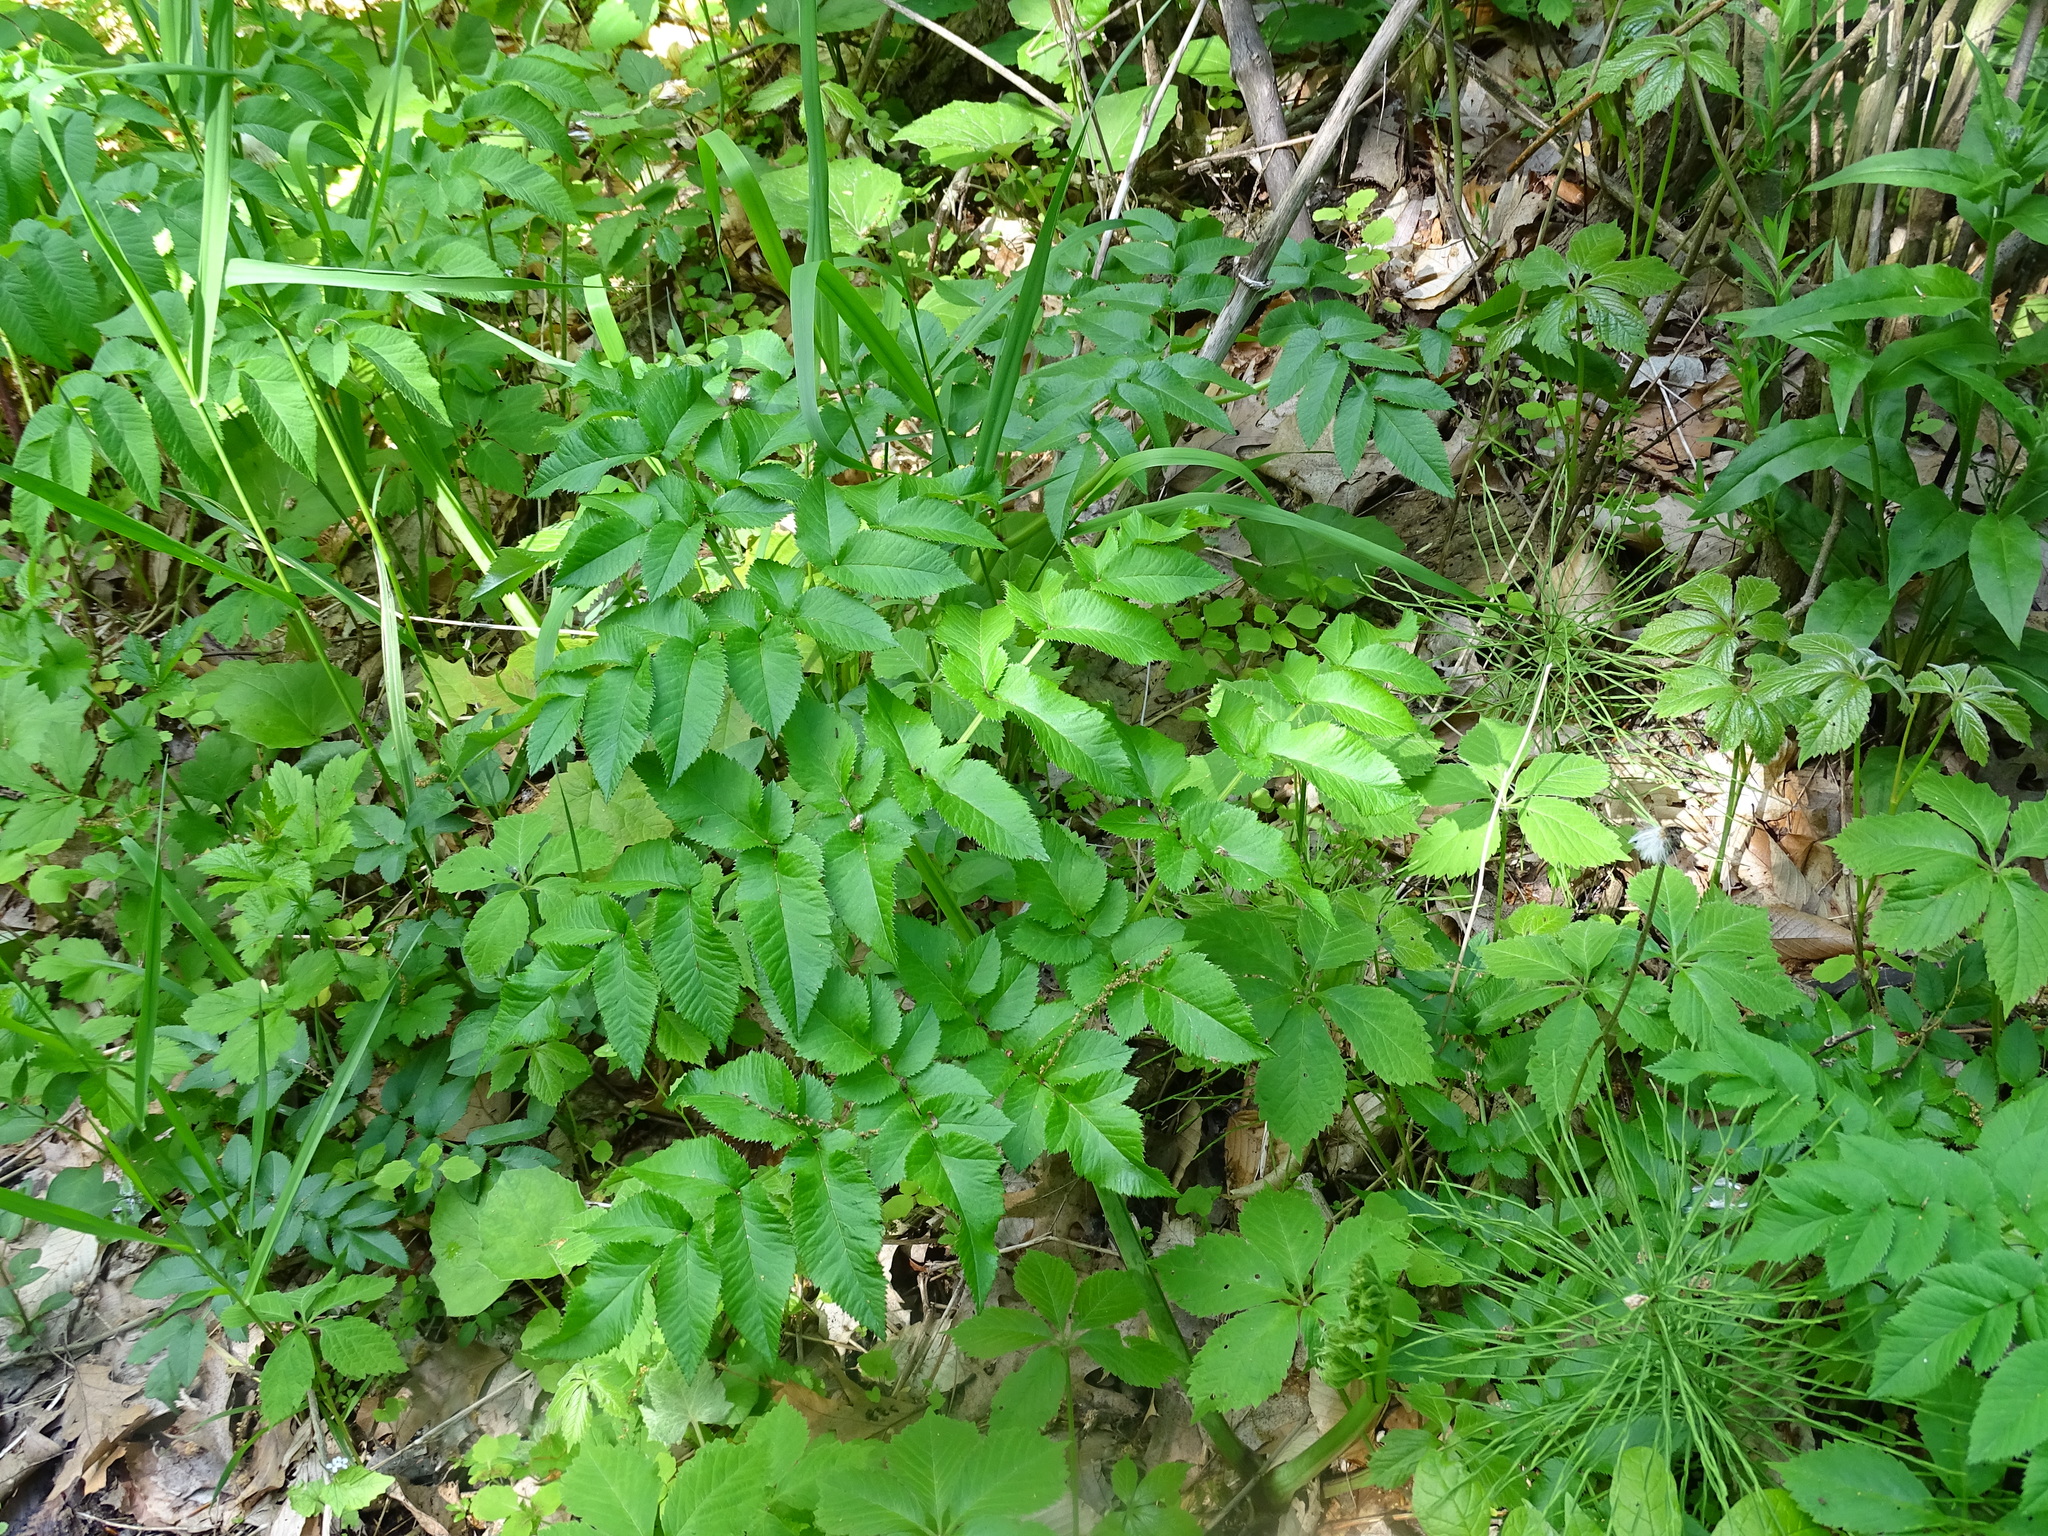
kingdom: Plantae
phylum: Tracheophyta
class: Magnoliopsida
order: Apiales
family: Apiaceae
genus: Angelica
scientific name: Angelica sylvestris
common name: Wild angelica
